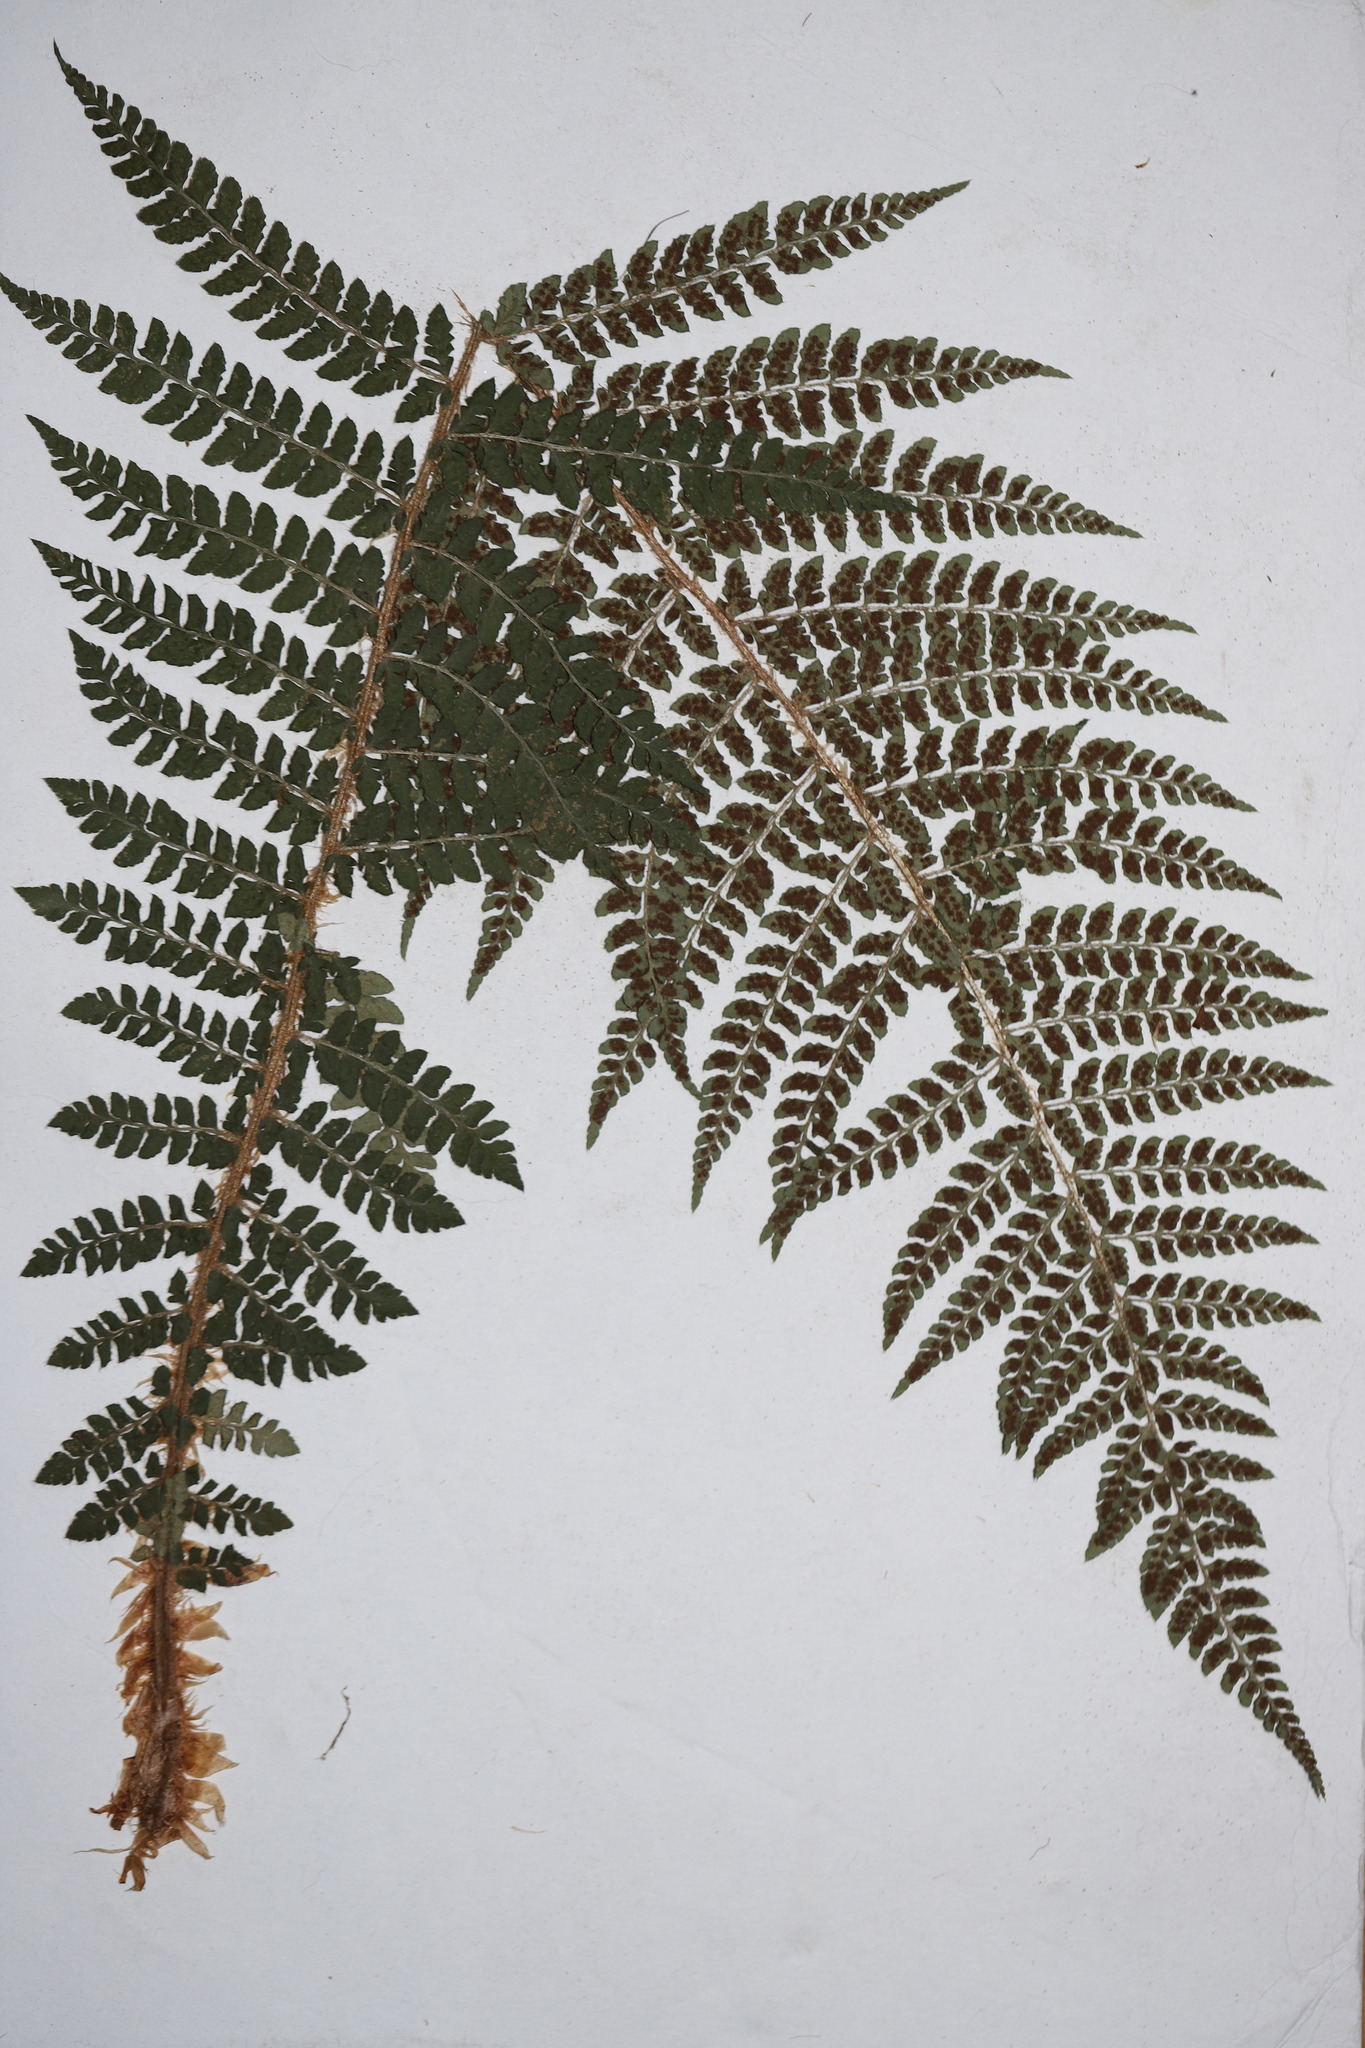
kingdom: Plantae
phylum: Tracheophyta
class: Polypodiopsida
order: Polypodiales
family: Dryopteridaceae
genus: Polystichum
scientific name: Polystichum braunii
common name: Braun's holly fern
